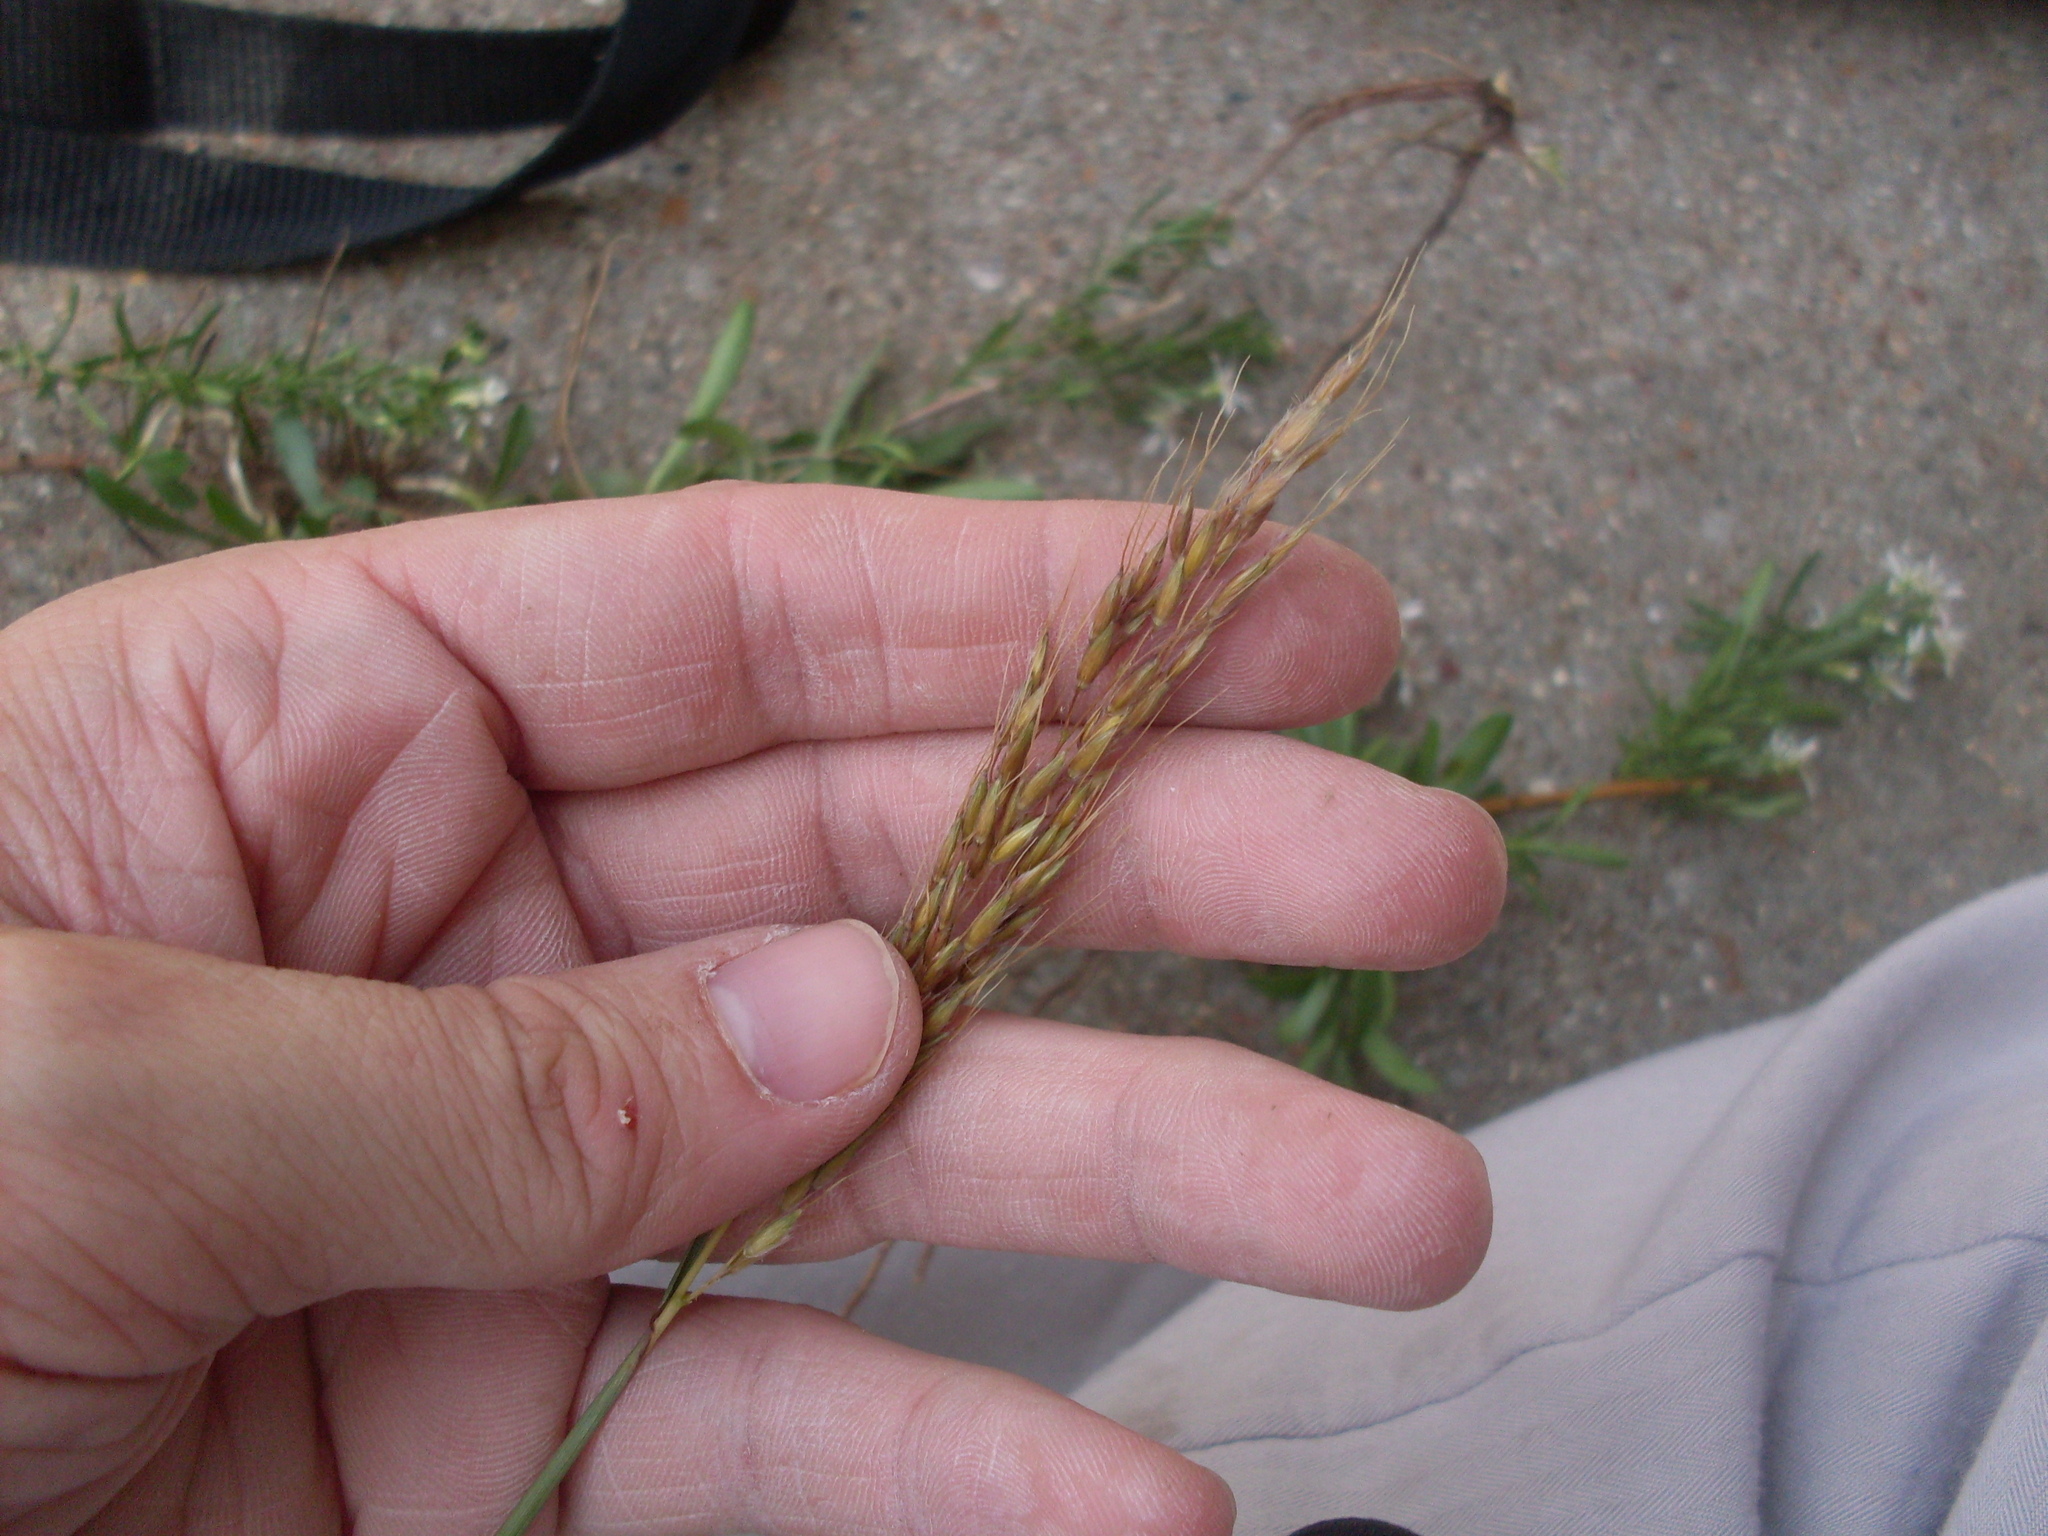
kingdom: Plantae
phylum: Tracheophyta
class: Liliopsida
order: Poales
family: Poaceae
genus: Sorghastrum
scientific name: Sorghastrum nutans
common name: Indian grass
